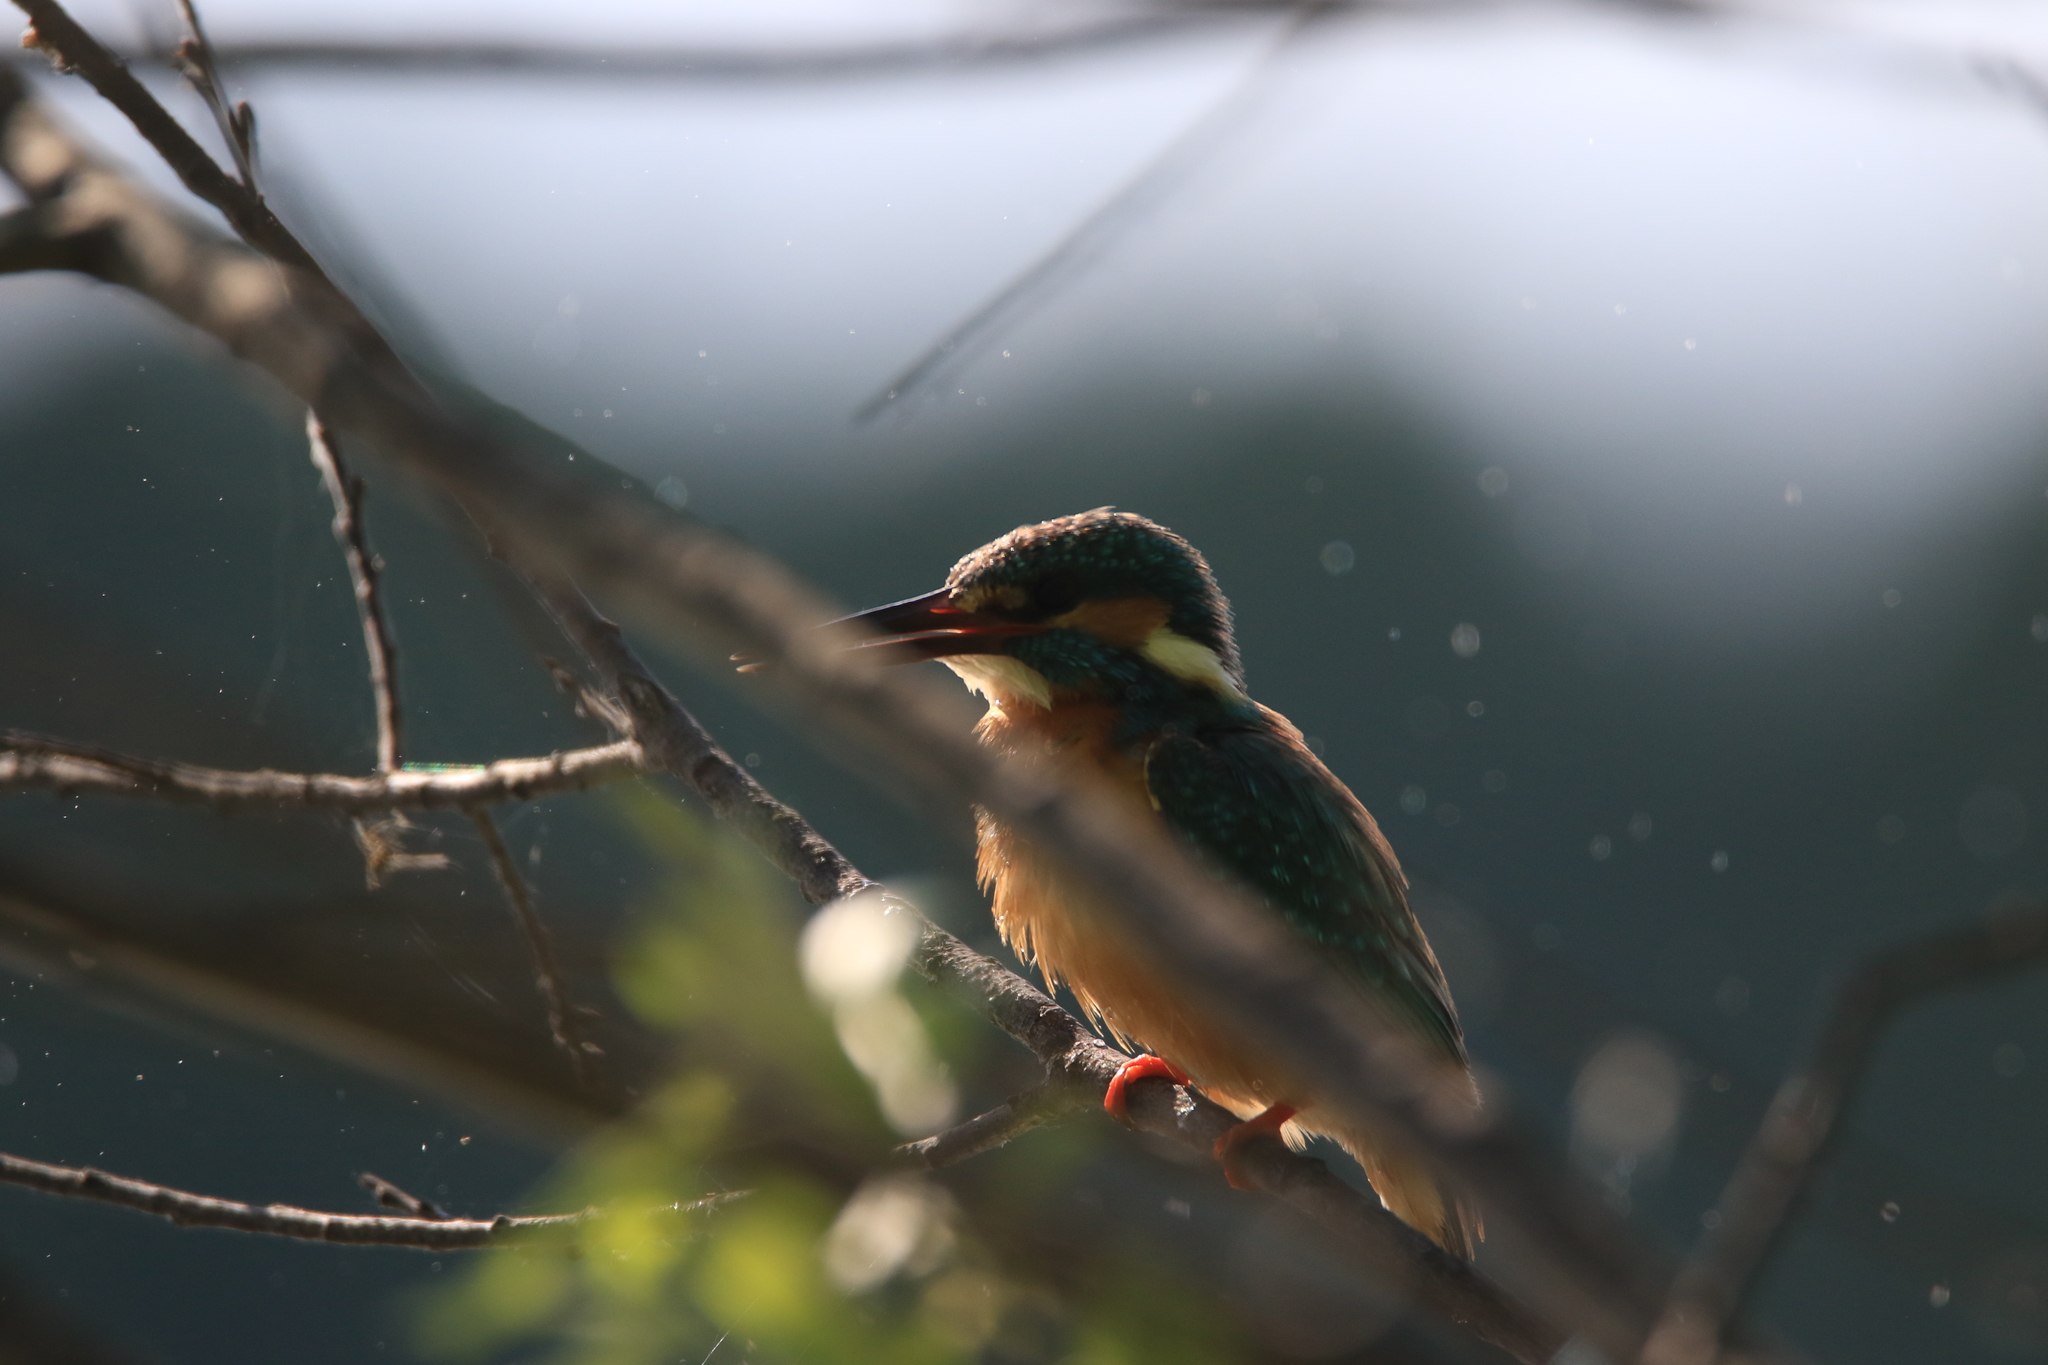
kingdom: Animalia
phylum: Chordata
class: Aves
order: Coraciiformes
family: Alcedinidae
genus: Alcedo
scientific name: Alcedo atthis
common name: Common kingfisher
